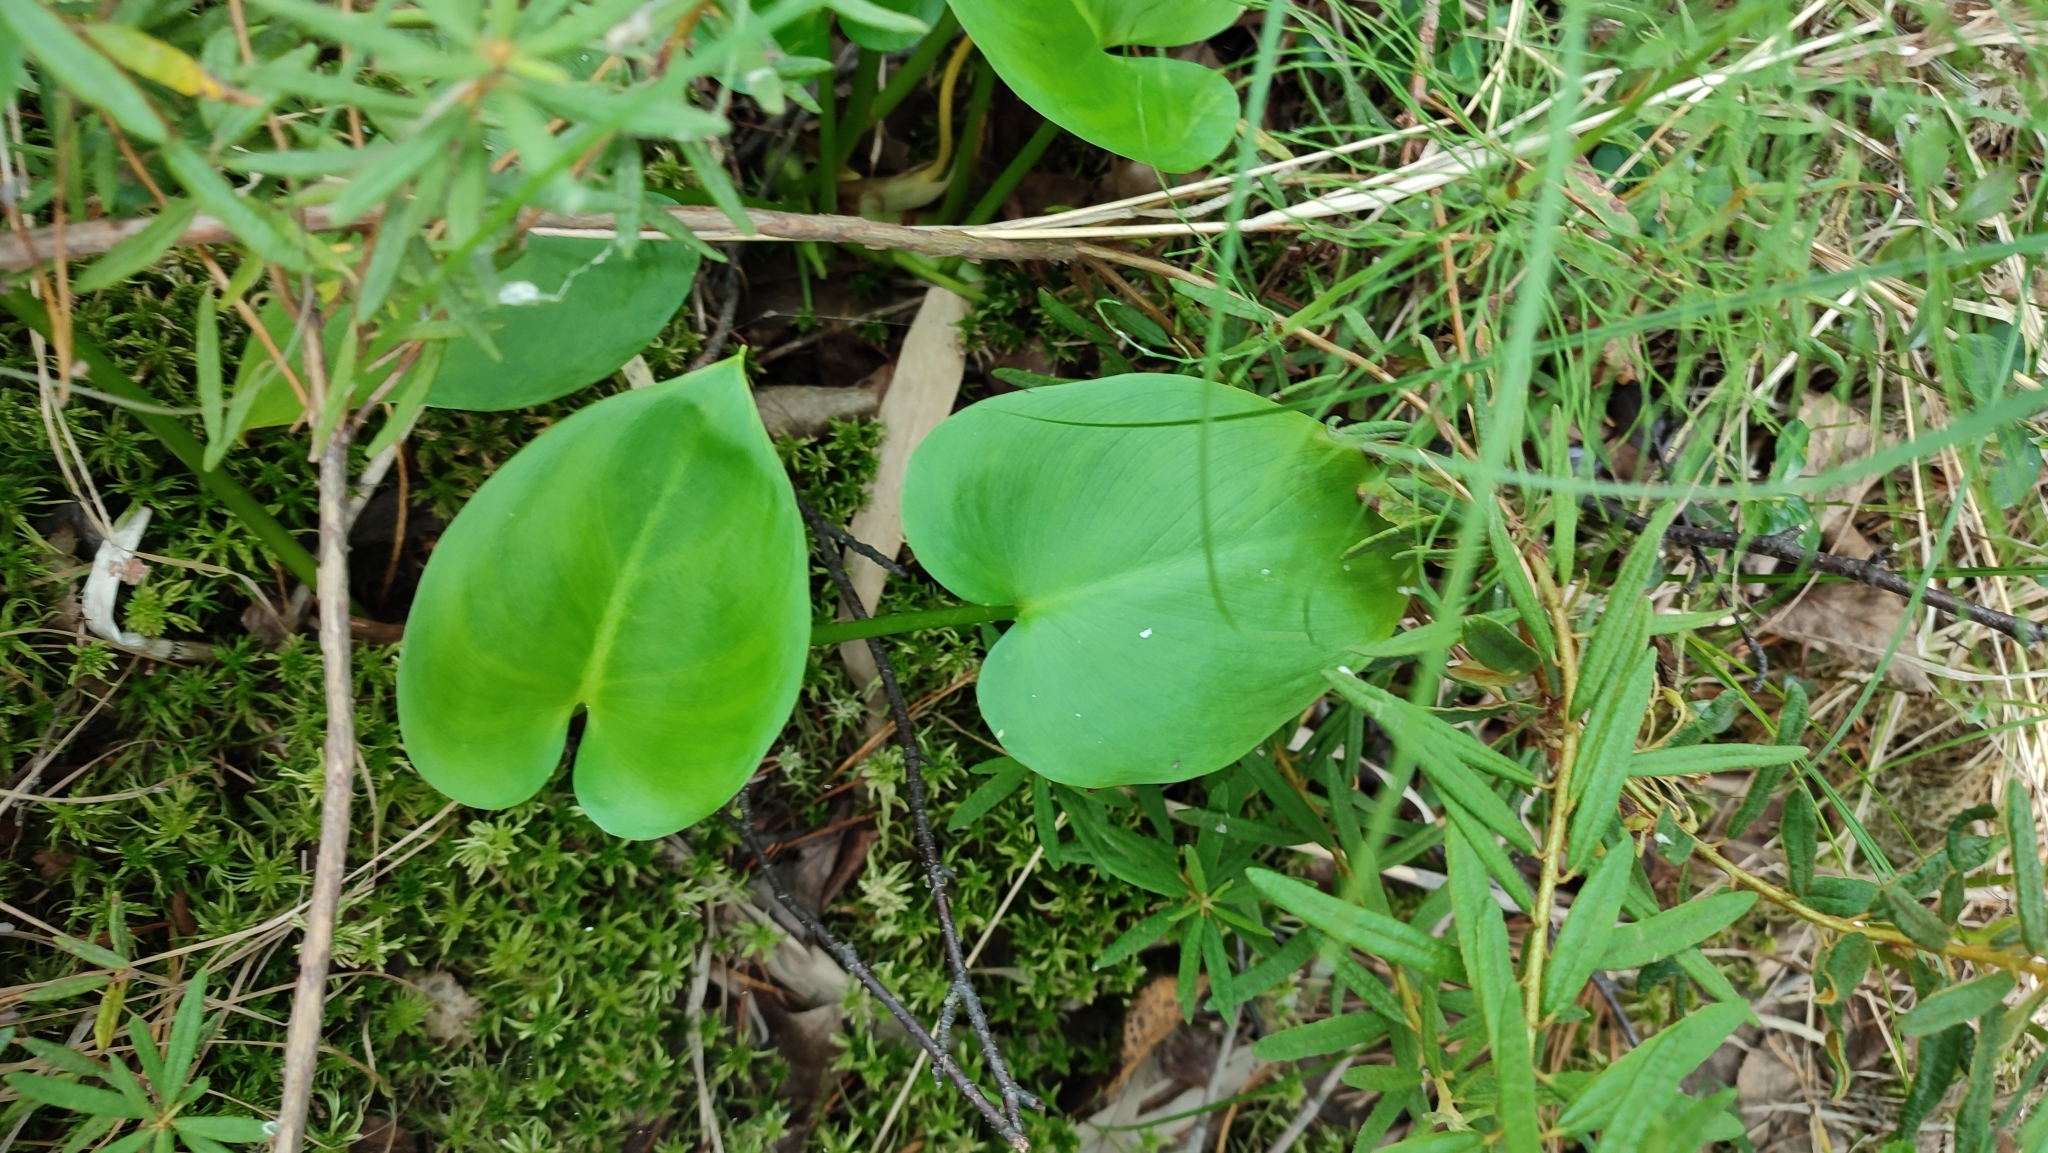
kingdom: Plantae
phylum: Tracheophyta
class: Liliopsida
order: Alismatales
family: Araceae
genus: Calla
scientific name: Calla palustris
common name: Bog arum
